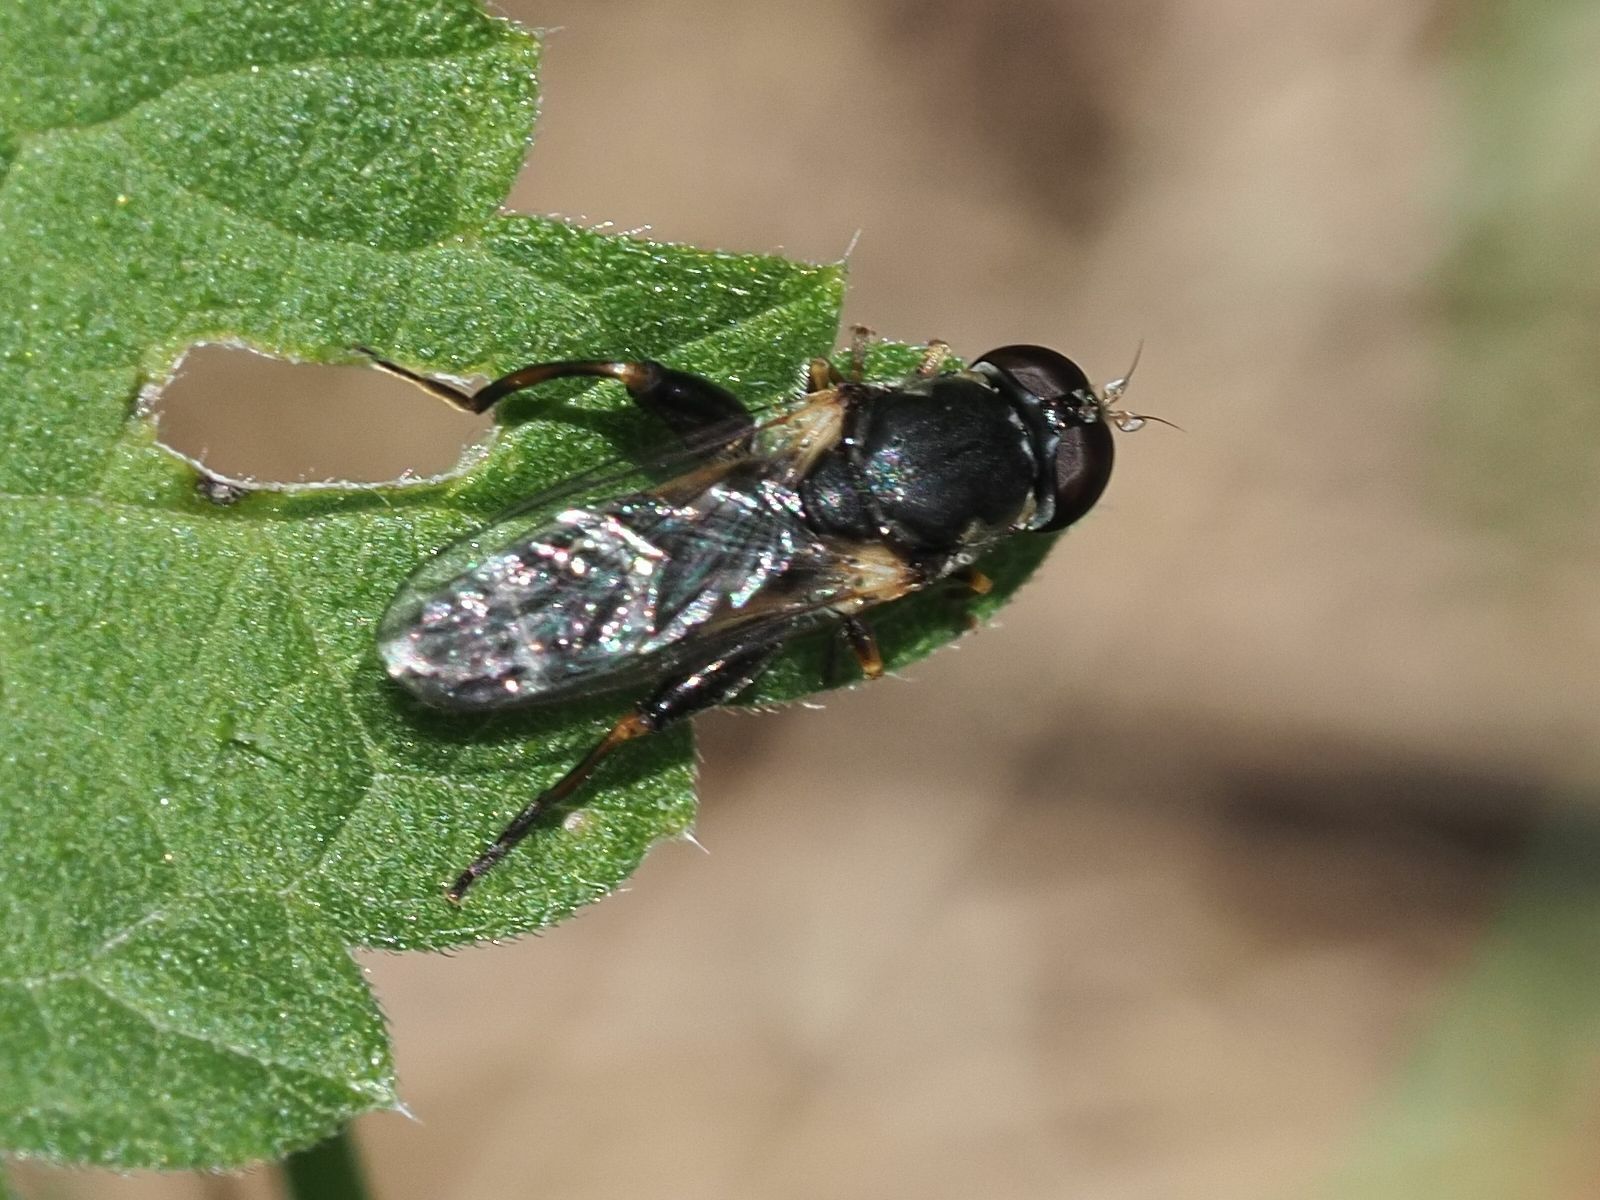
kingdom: Animalia
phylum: Arthropoda
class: Insecta
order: Diptera
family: Syrphidae
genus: Syritta
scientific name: Syritta pipiens
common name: Hover fly
